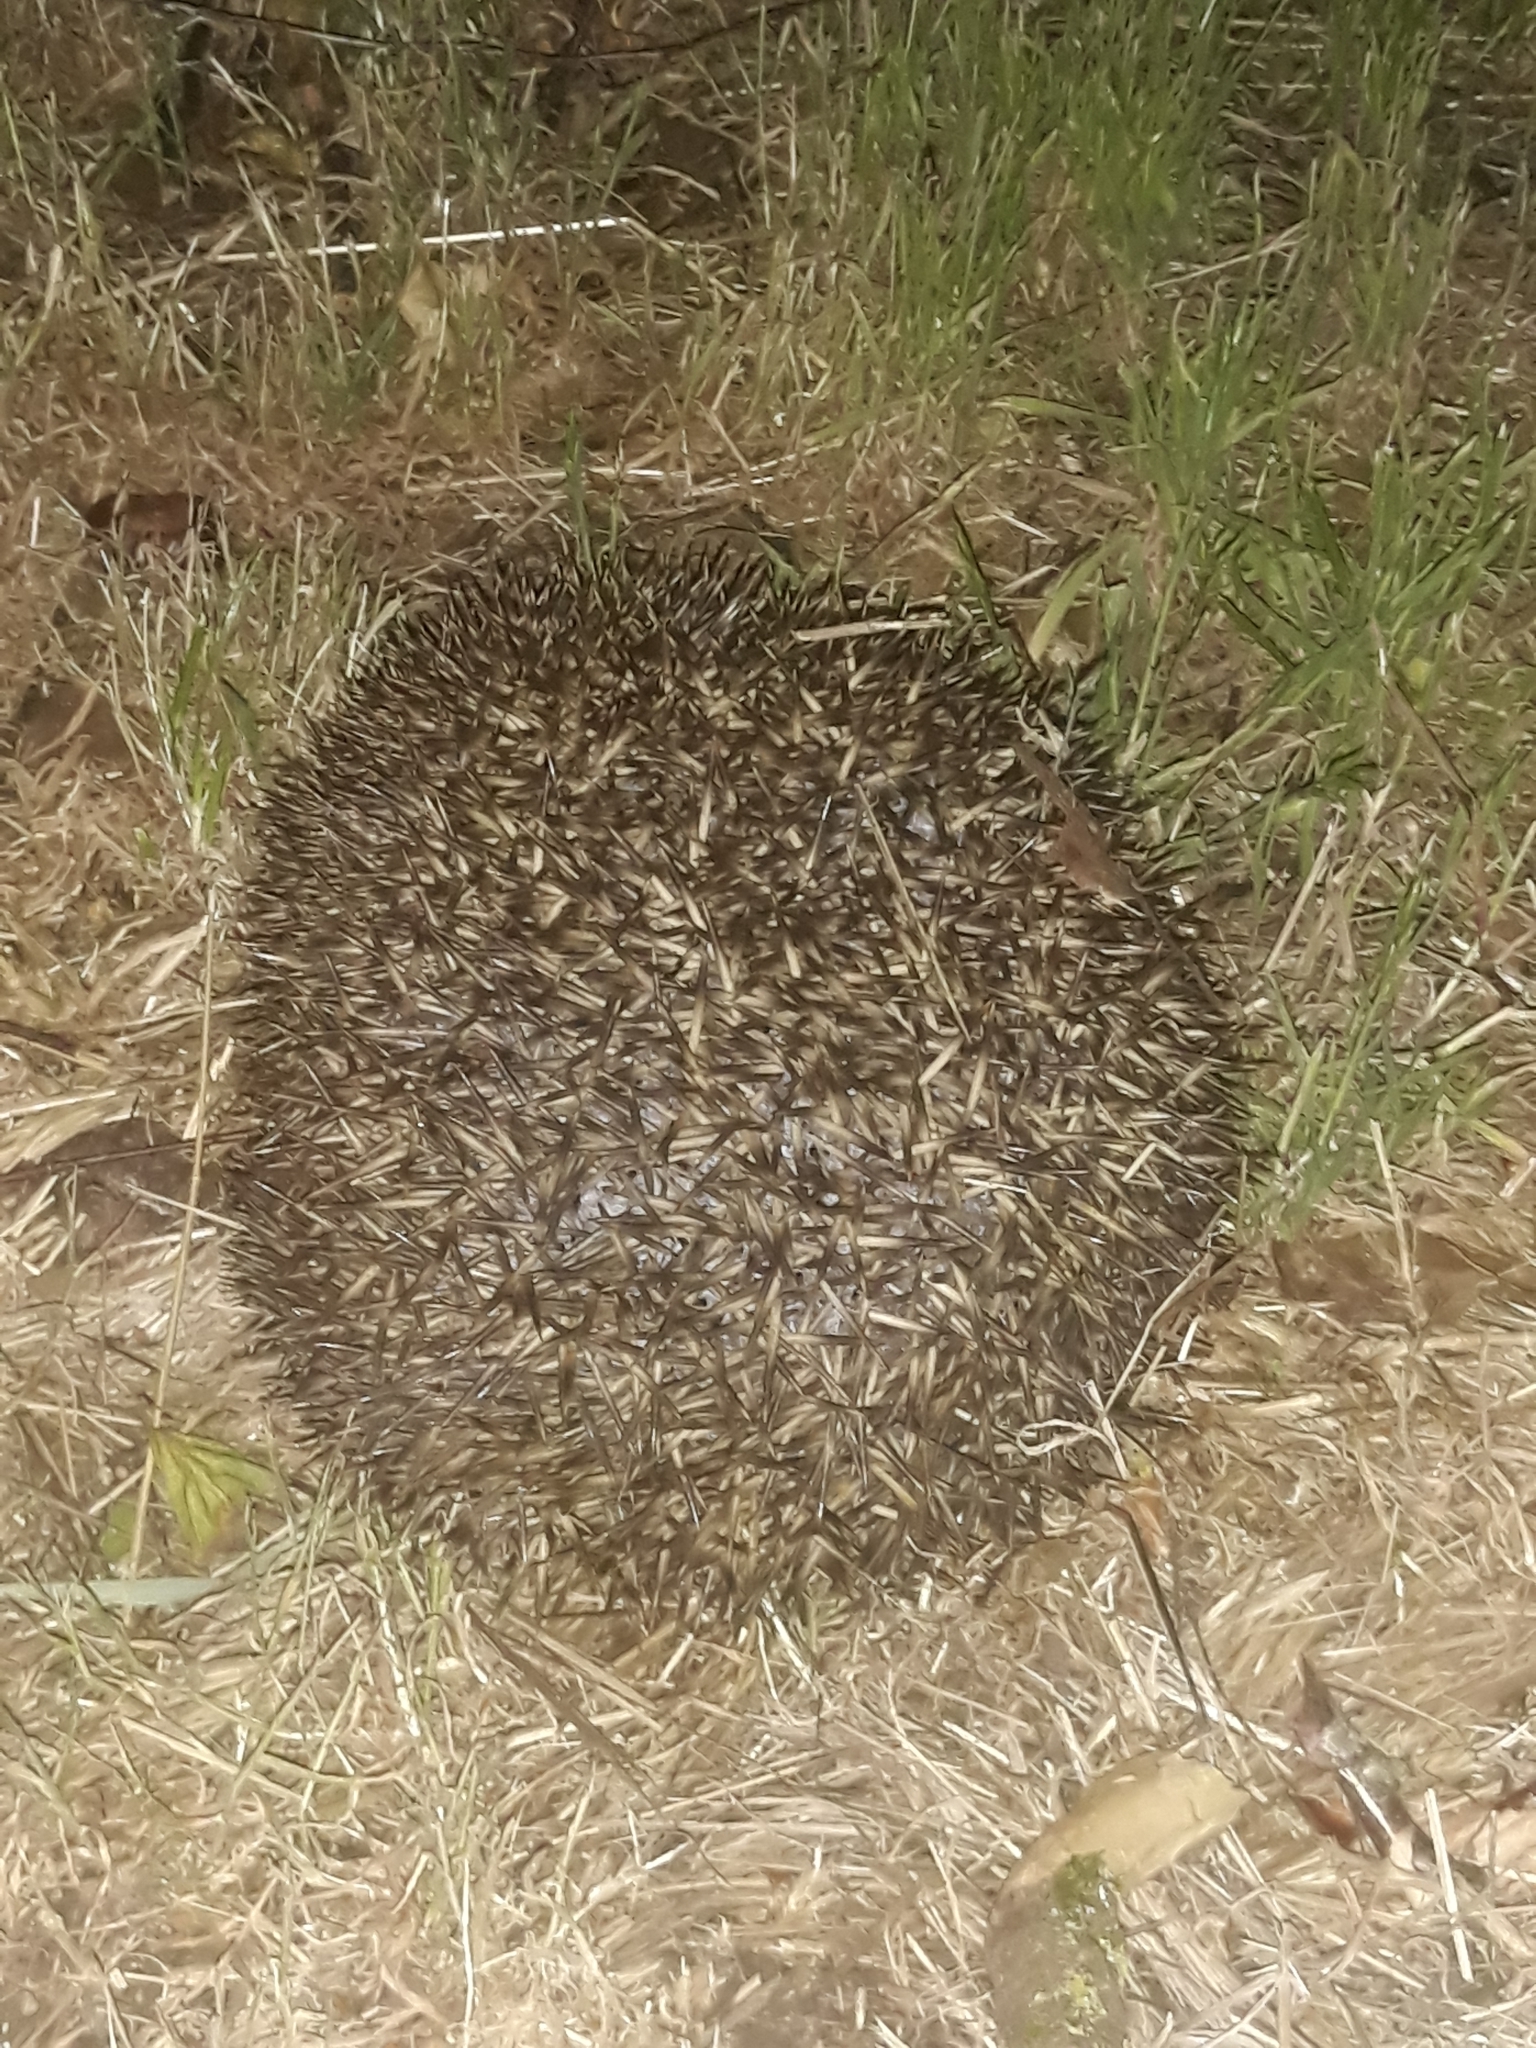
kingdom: Animalia
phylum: Chordata
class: Mammalia
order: Erinaceomorpha
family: Erinaceidae
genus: Erinaceus
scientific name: Erinaceus europaeus
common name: West european hedgehog
